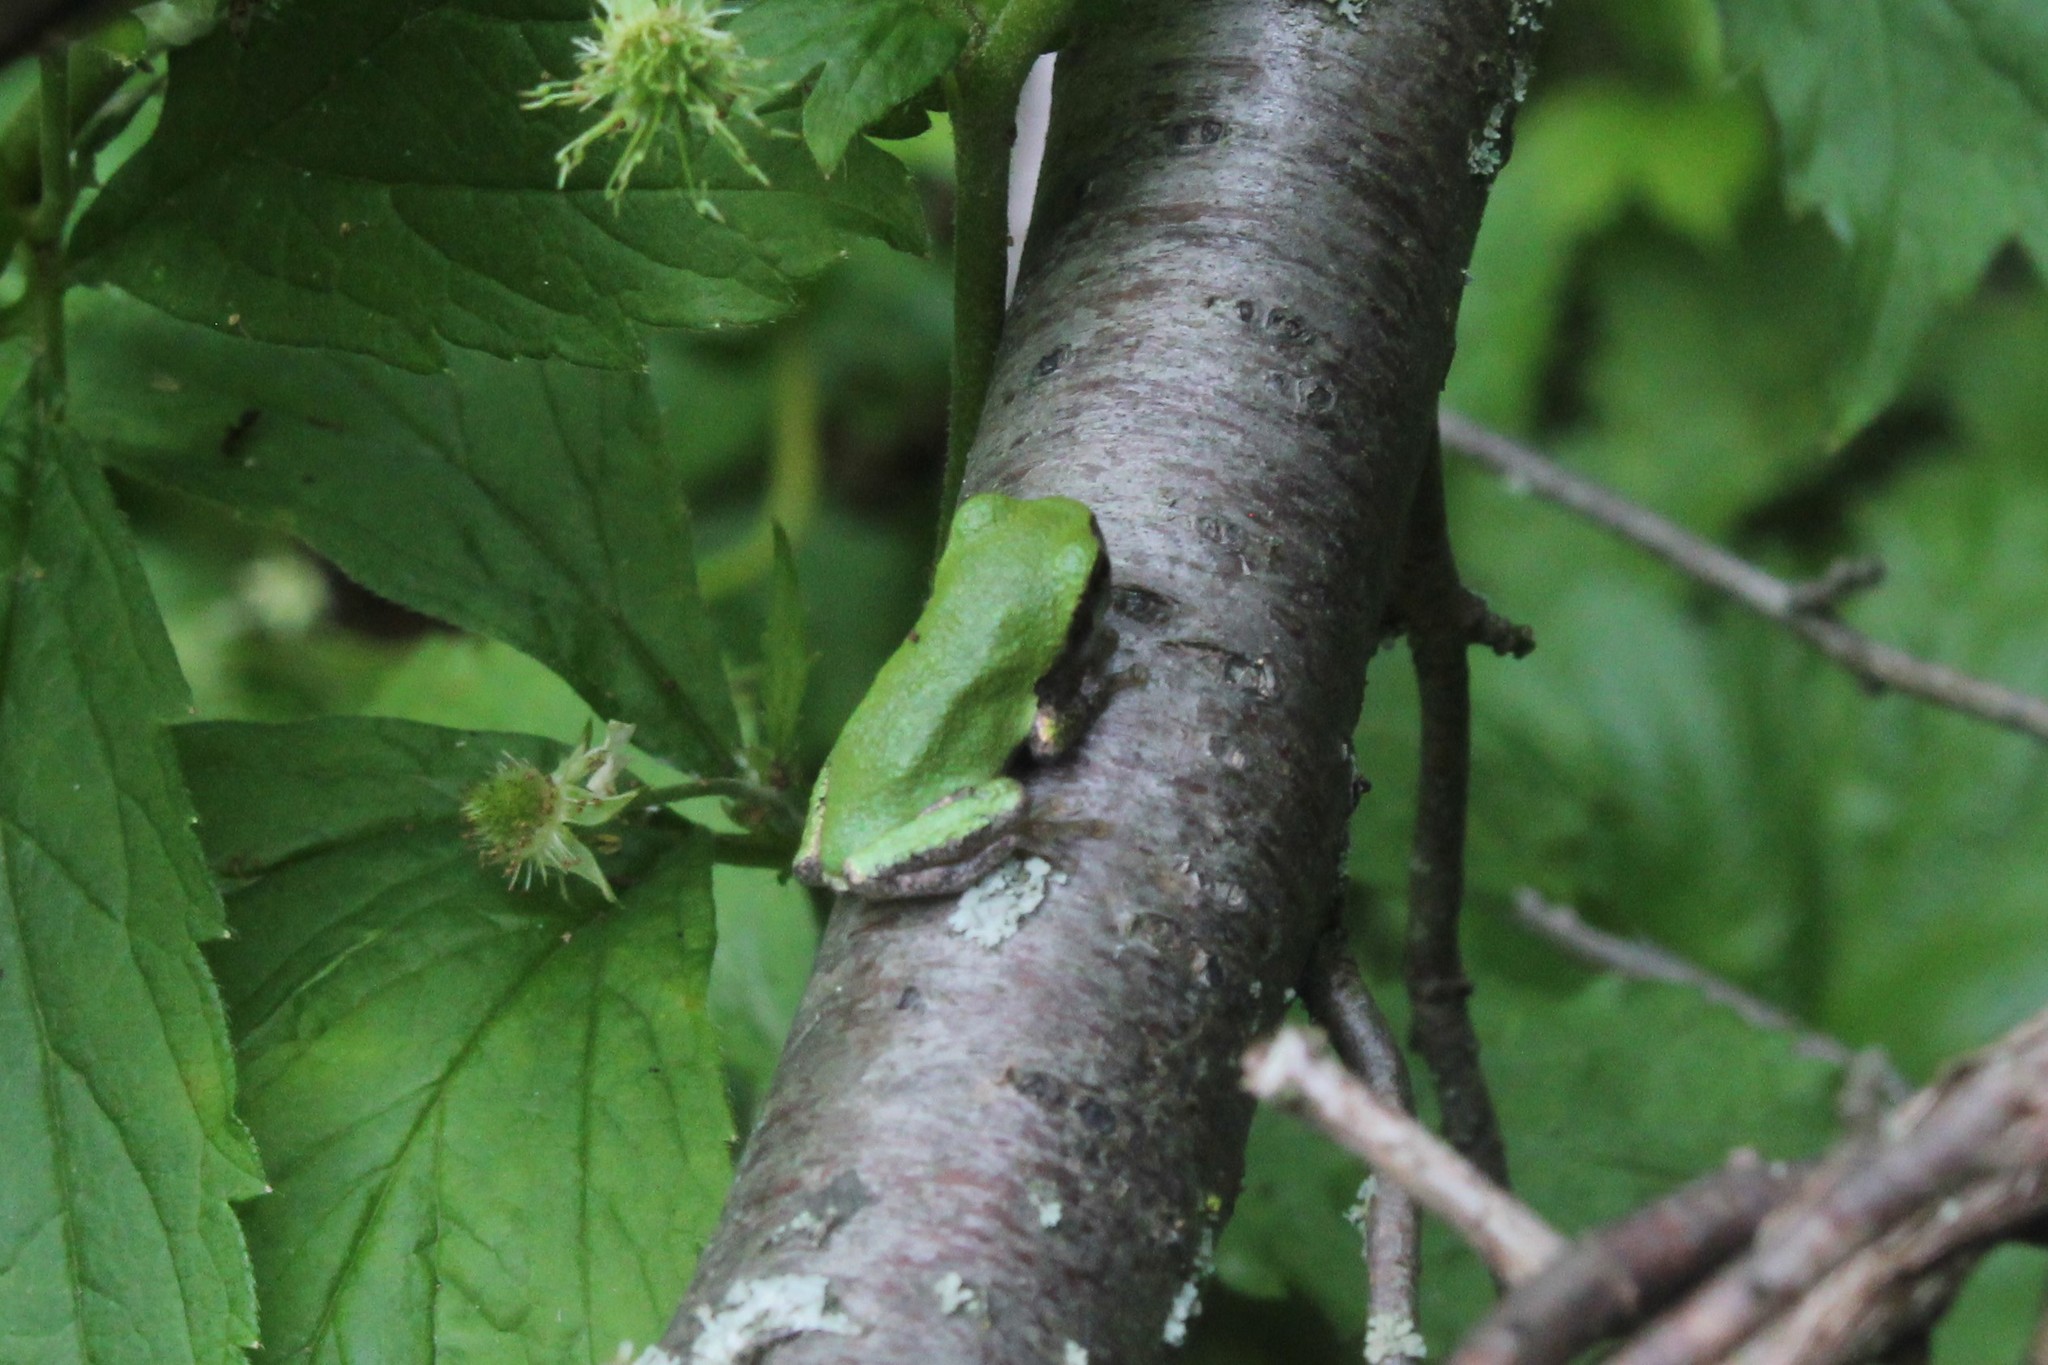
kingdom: Animalia
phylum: Chordata
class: Amphibia
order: Anura
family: Hylidae
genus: Dryophytes
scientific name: Dryophytes versicolor
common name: Gray treefrog
